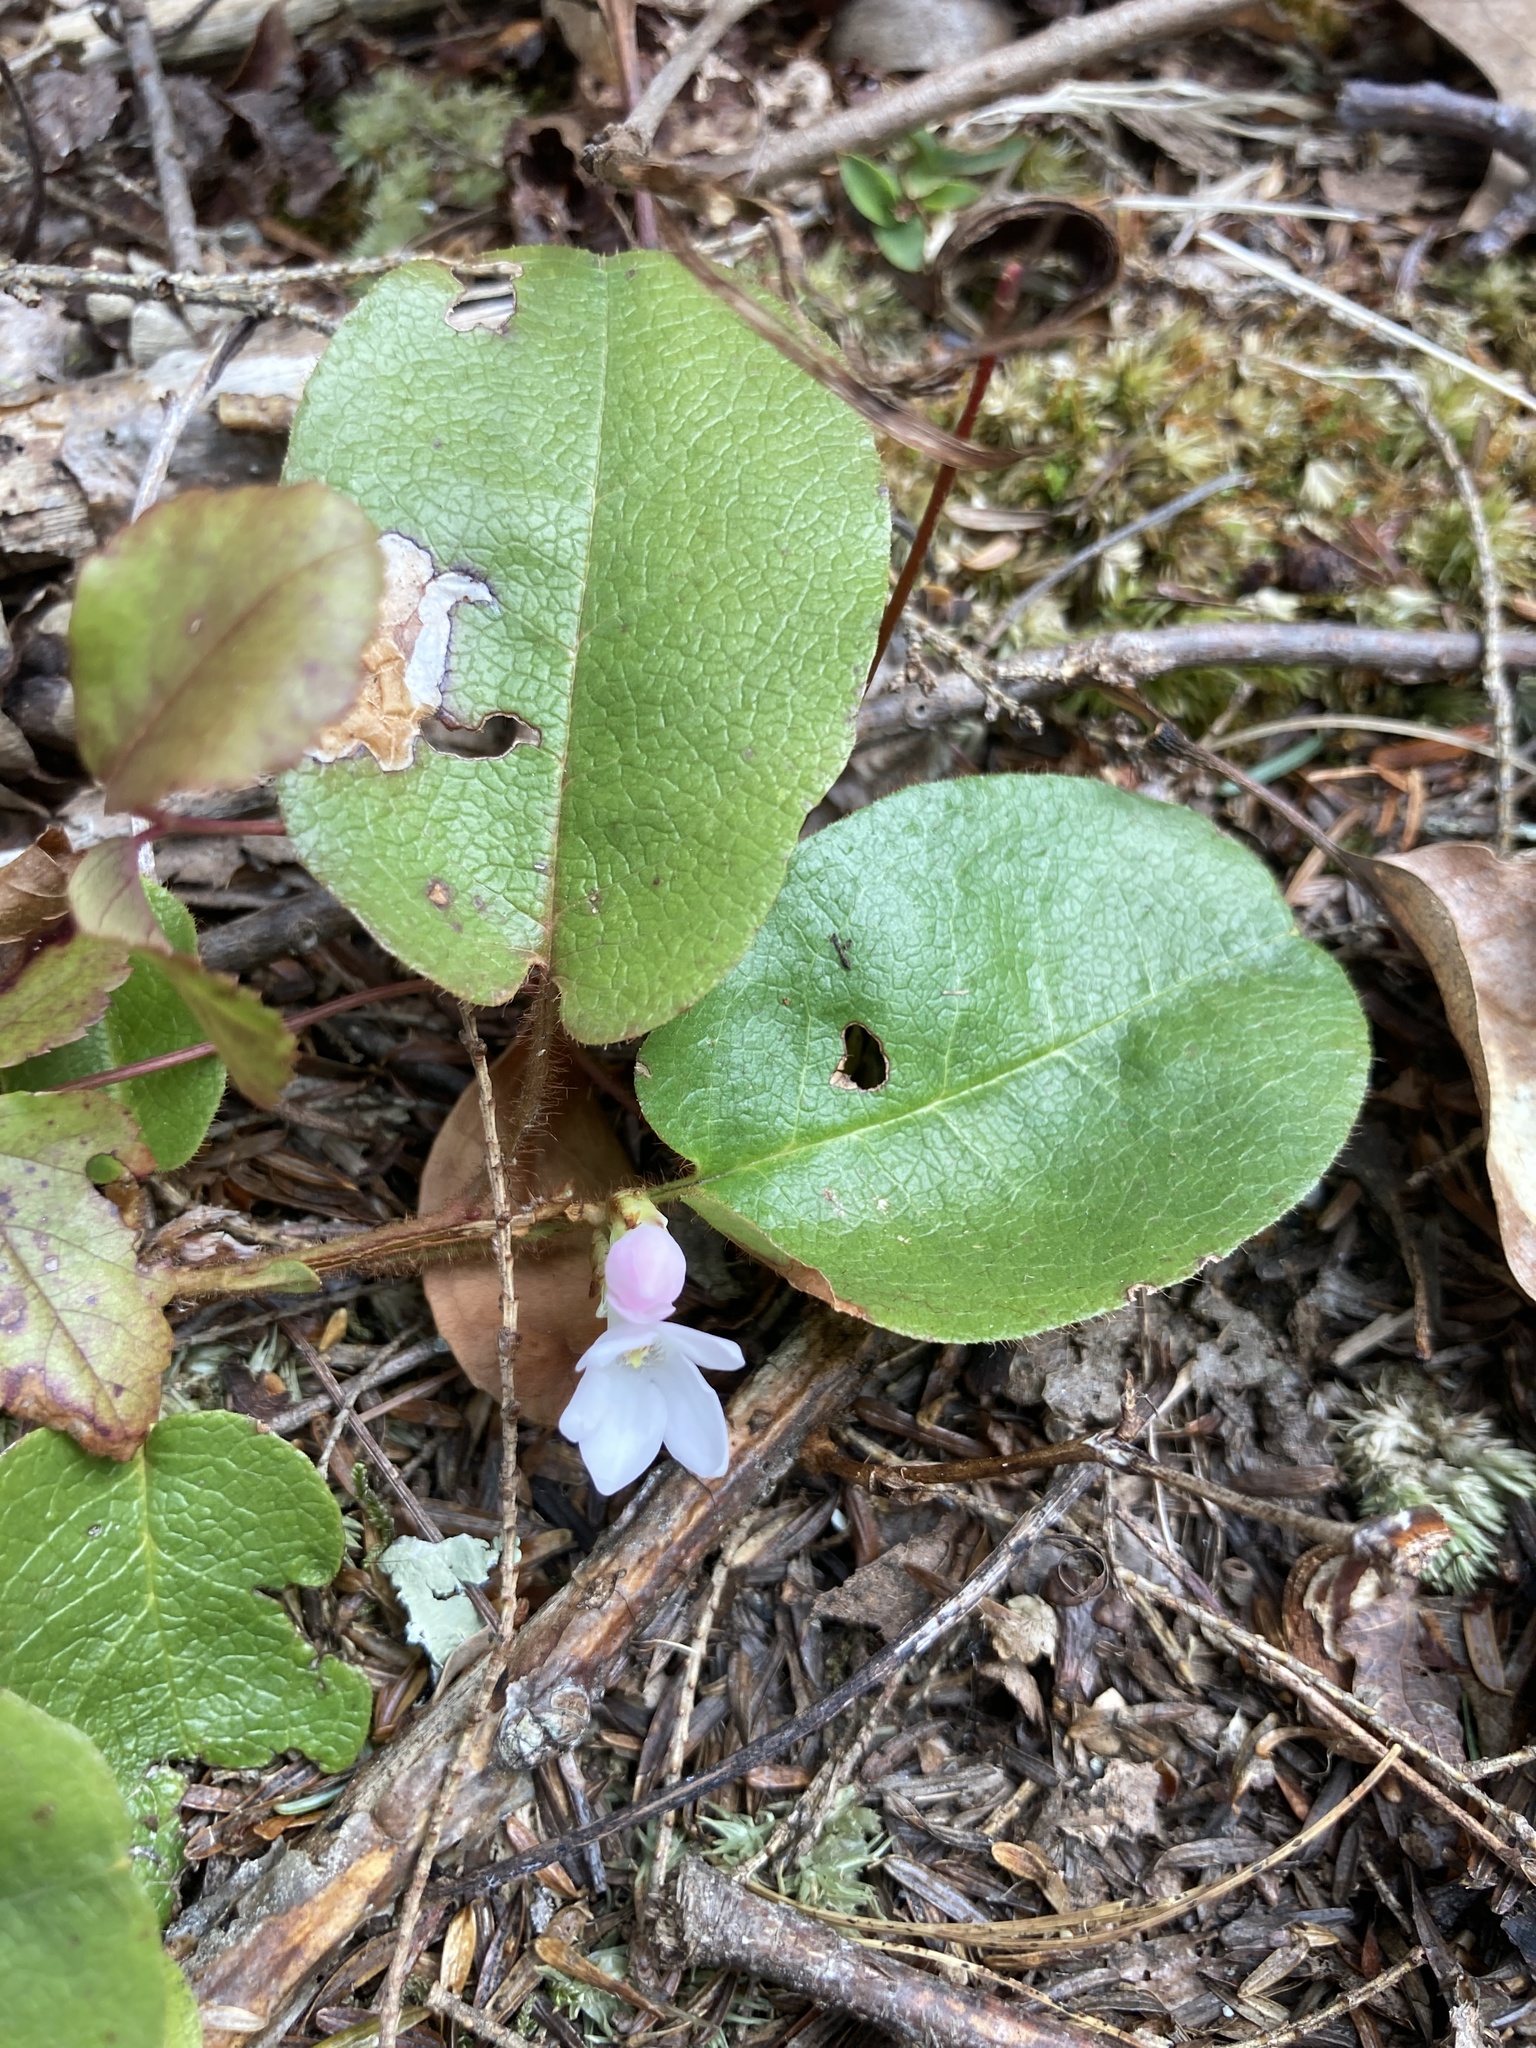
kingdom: Plantae
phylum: Tracheophyta
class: Magnoliopsida
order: Ericales
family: Ericaceae
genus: Epigaea
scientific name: Epigaea repens
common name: Gravelroot
